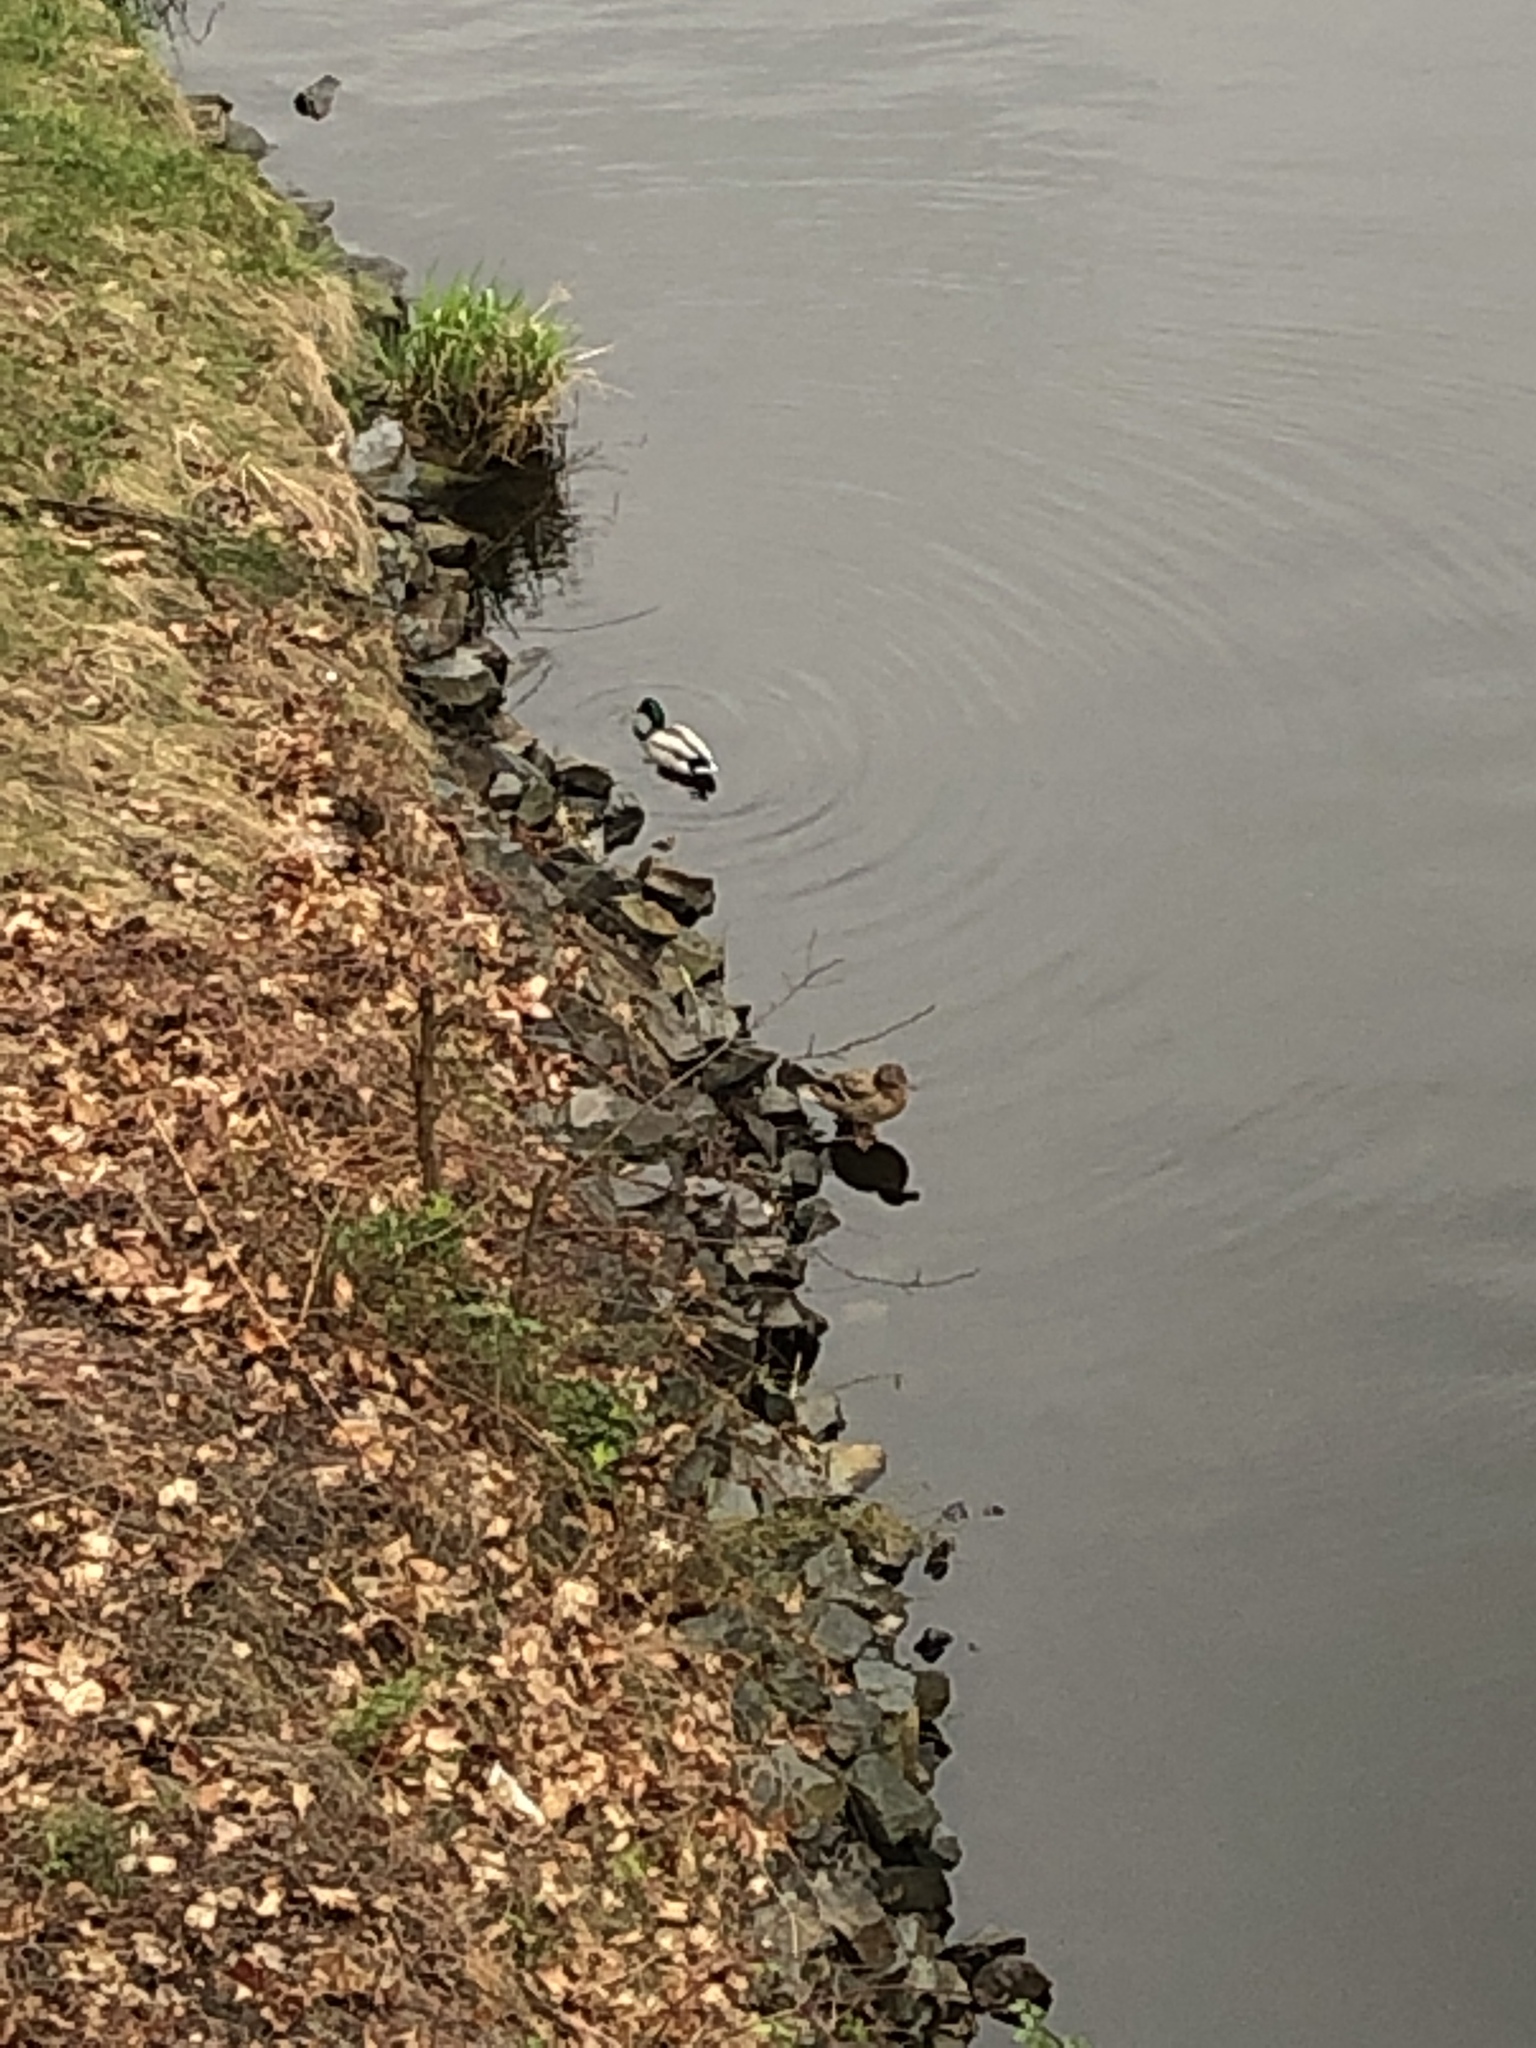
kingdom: Animalia
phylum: Chordata
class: Aves
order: Anseriformes
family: Anatidae
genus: Anas
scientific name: Anas platyrhynchos
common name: Mallard
